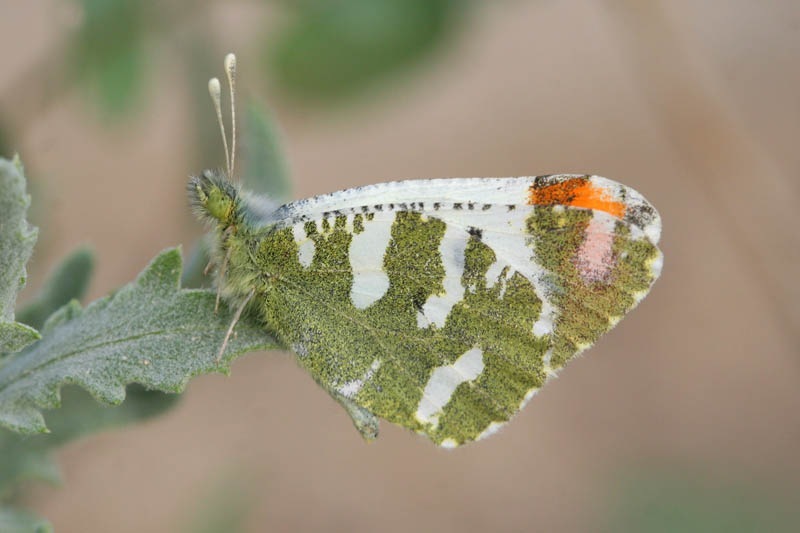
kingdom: Animalia
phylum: Arthropoda
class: Insecta
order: Lepidoptera
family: Pieridae
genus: Zegris
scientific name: Zegris pyrothoe
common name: Eversmann's sooty orange-tip
